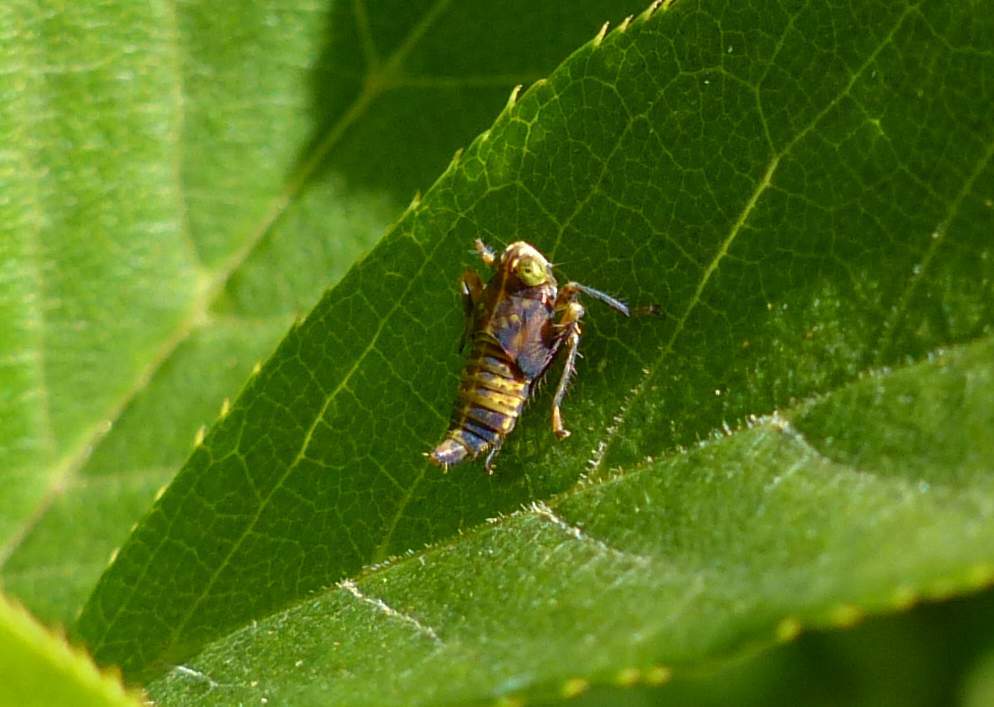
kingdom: Animalia
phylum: Arthropoda
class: Insecta
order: Hemiptera
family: Cicadellidae
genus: Jikradia
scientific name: Jikradia olitoria
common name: Coppery leafhopper
